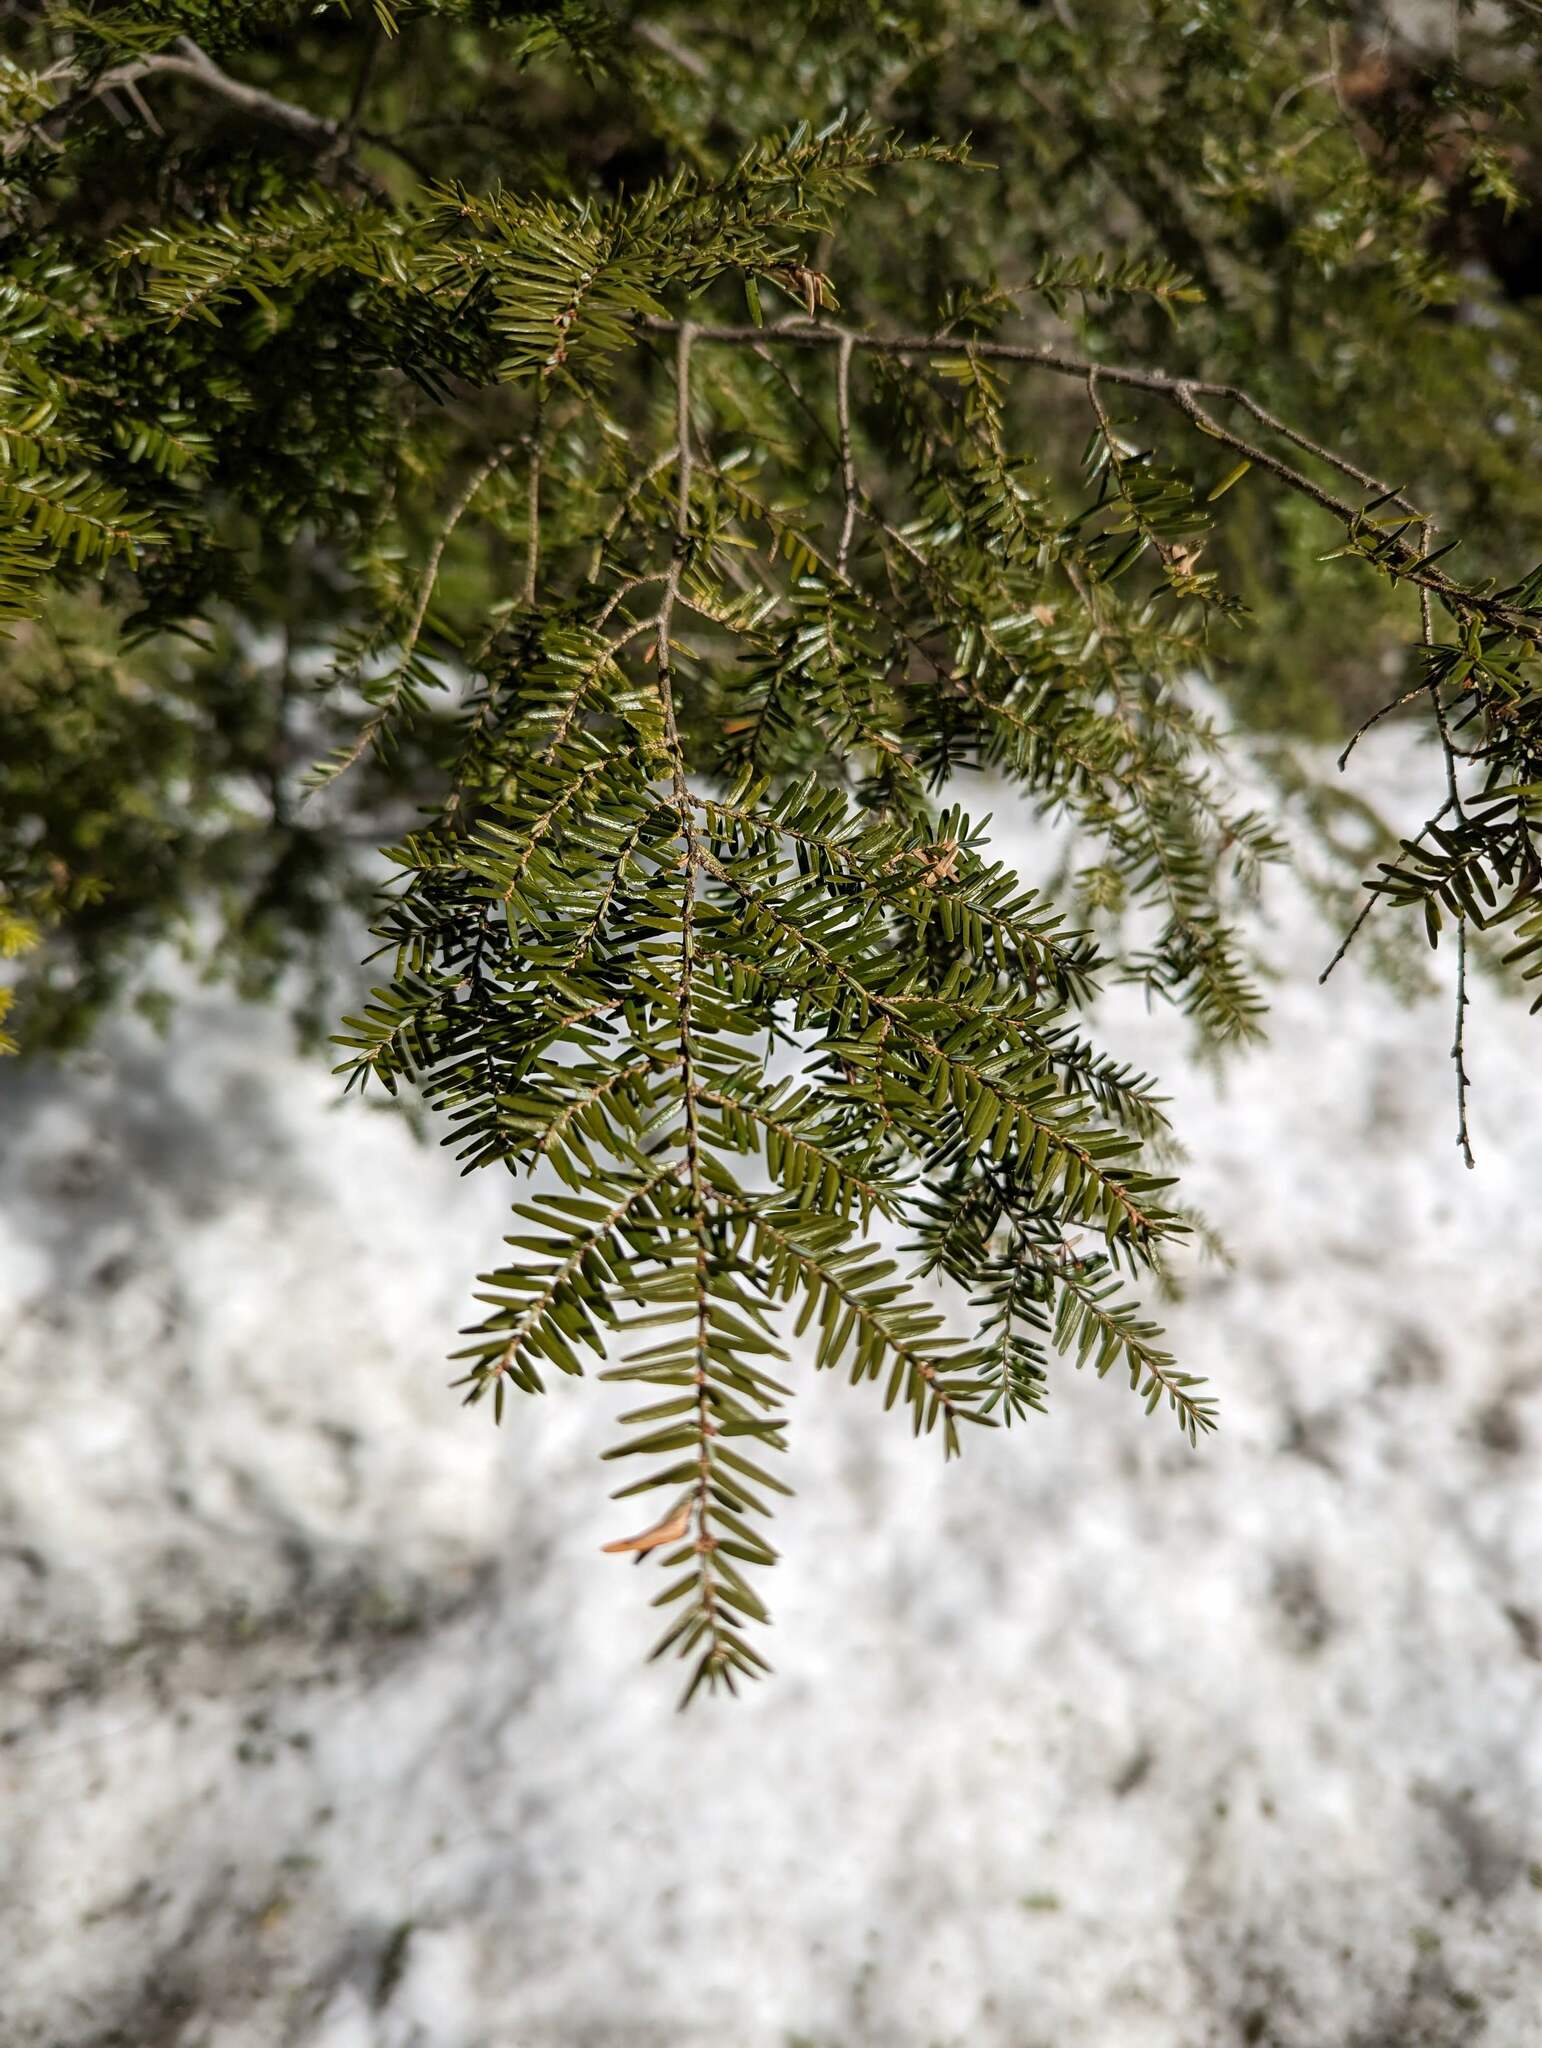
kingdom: Plantae
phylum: Tracheophyta
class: Pinopsida
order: Pinales
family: Pinaceae
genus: Tsuga
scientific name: Tsuga canadensis
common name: Eastern hemlock
